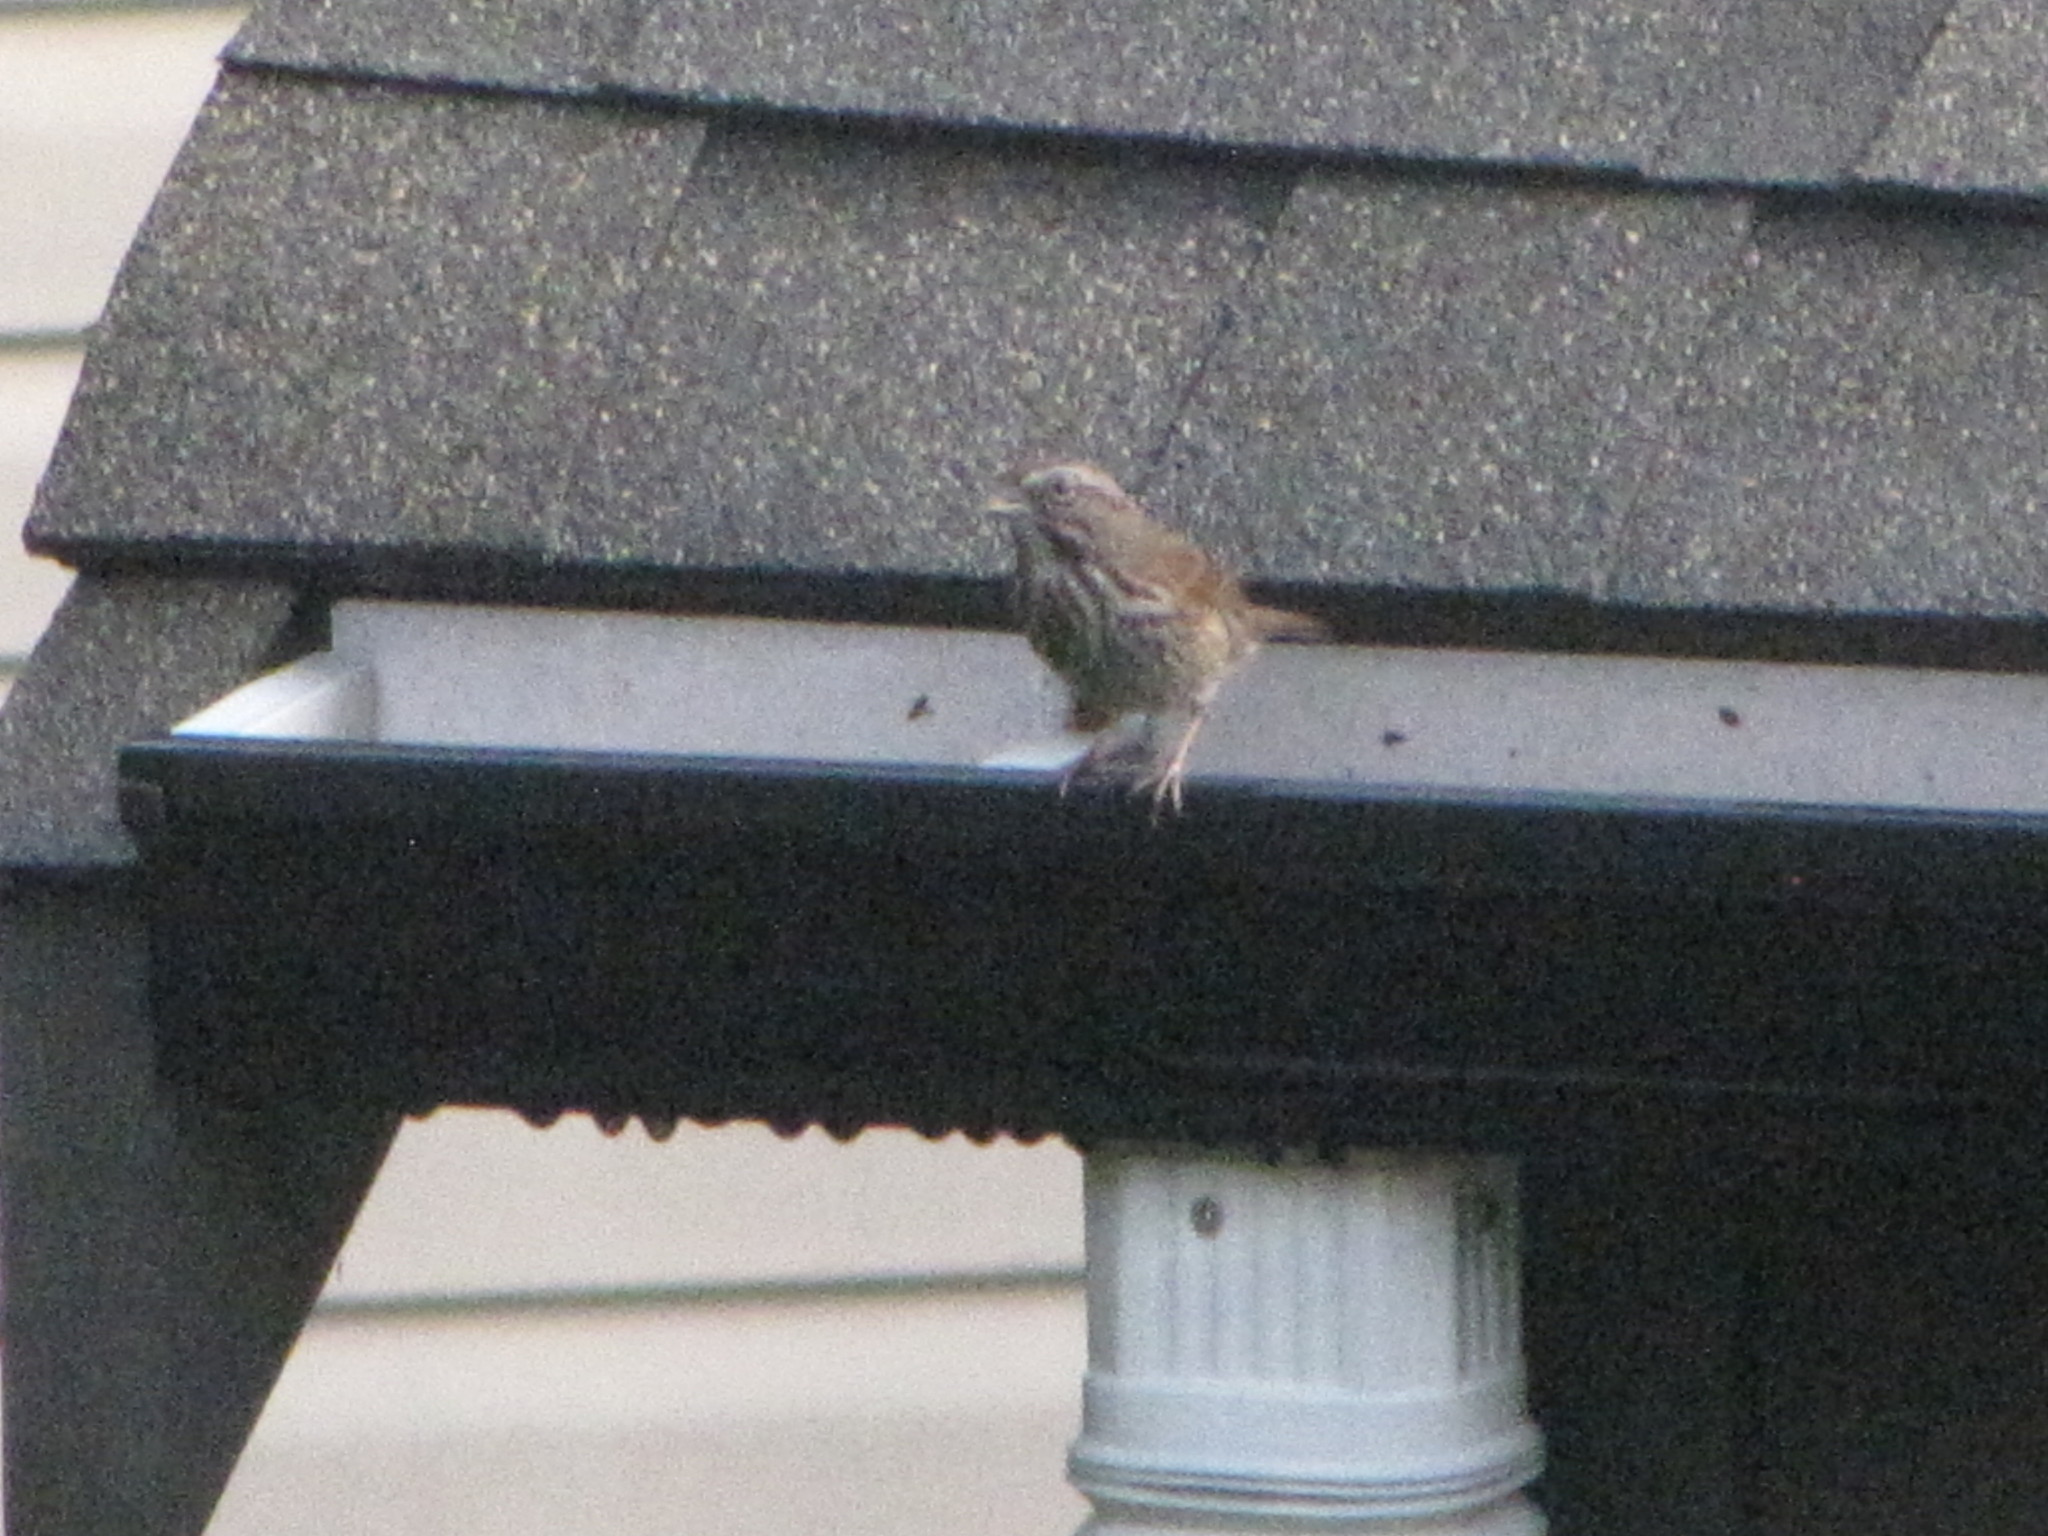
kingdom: Animalia
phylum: Chordata
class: Aves
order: Passeriformes
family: Passerellidae
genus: Melospiza
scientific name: Melospiza melodia
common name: Song sparrow
